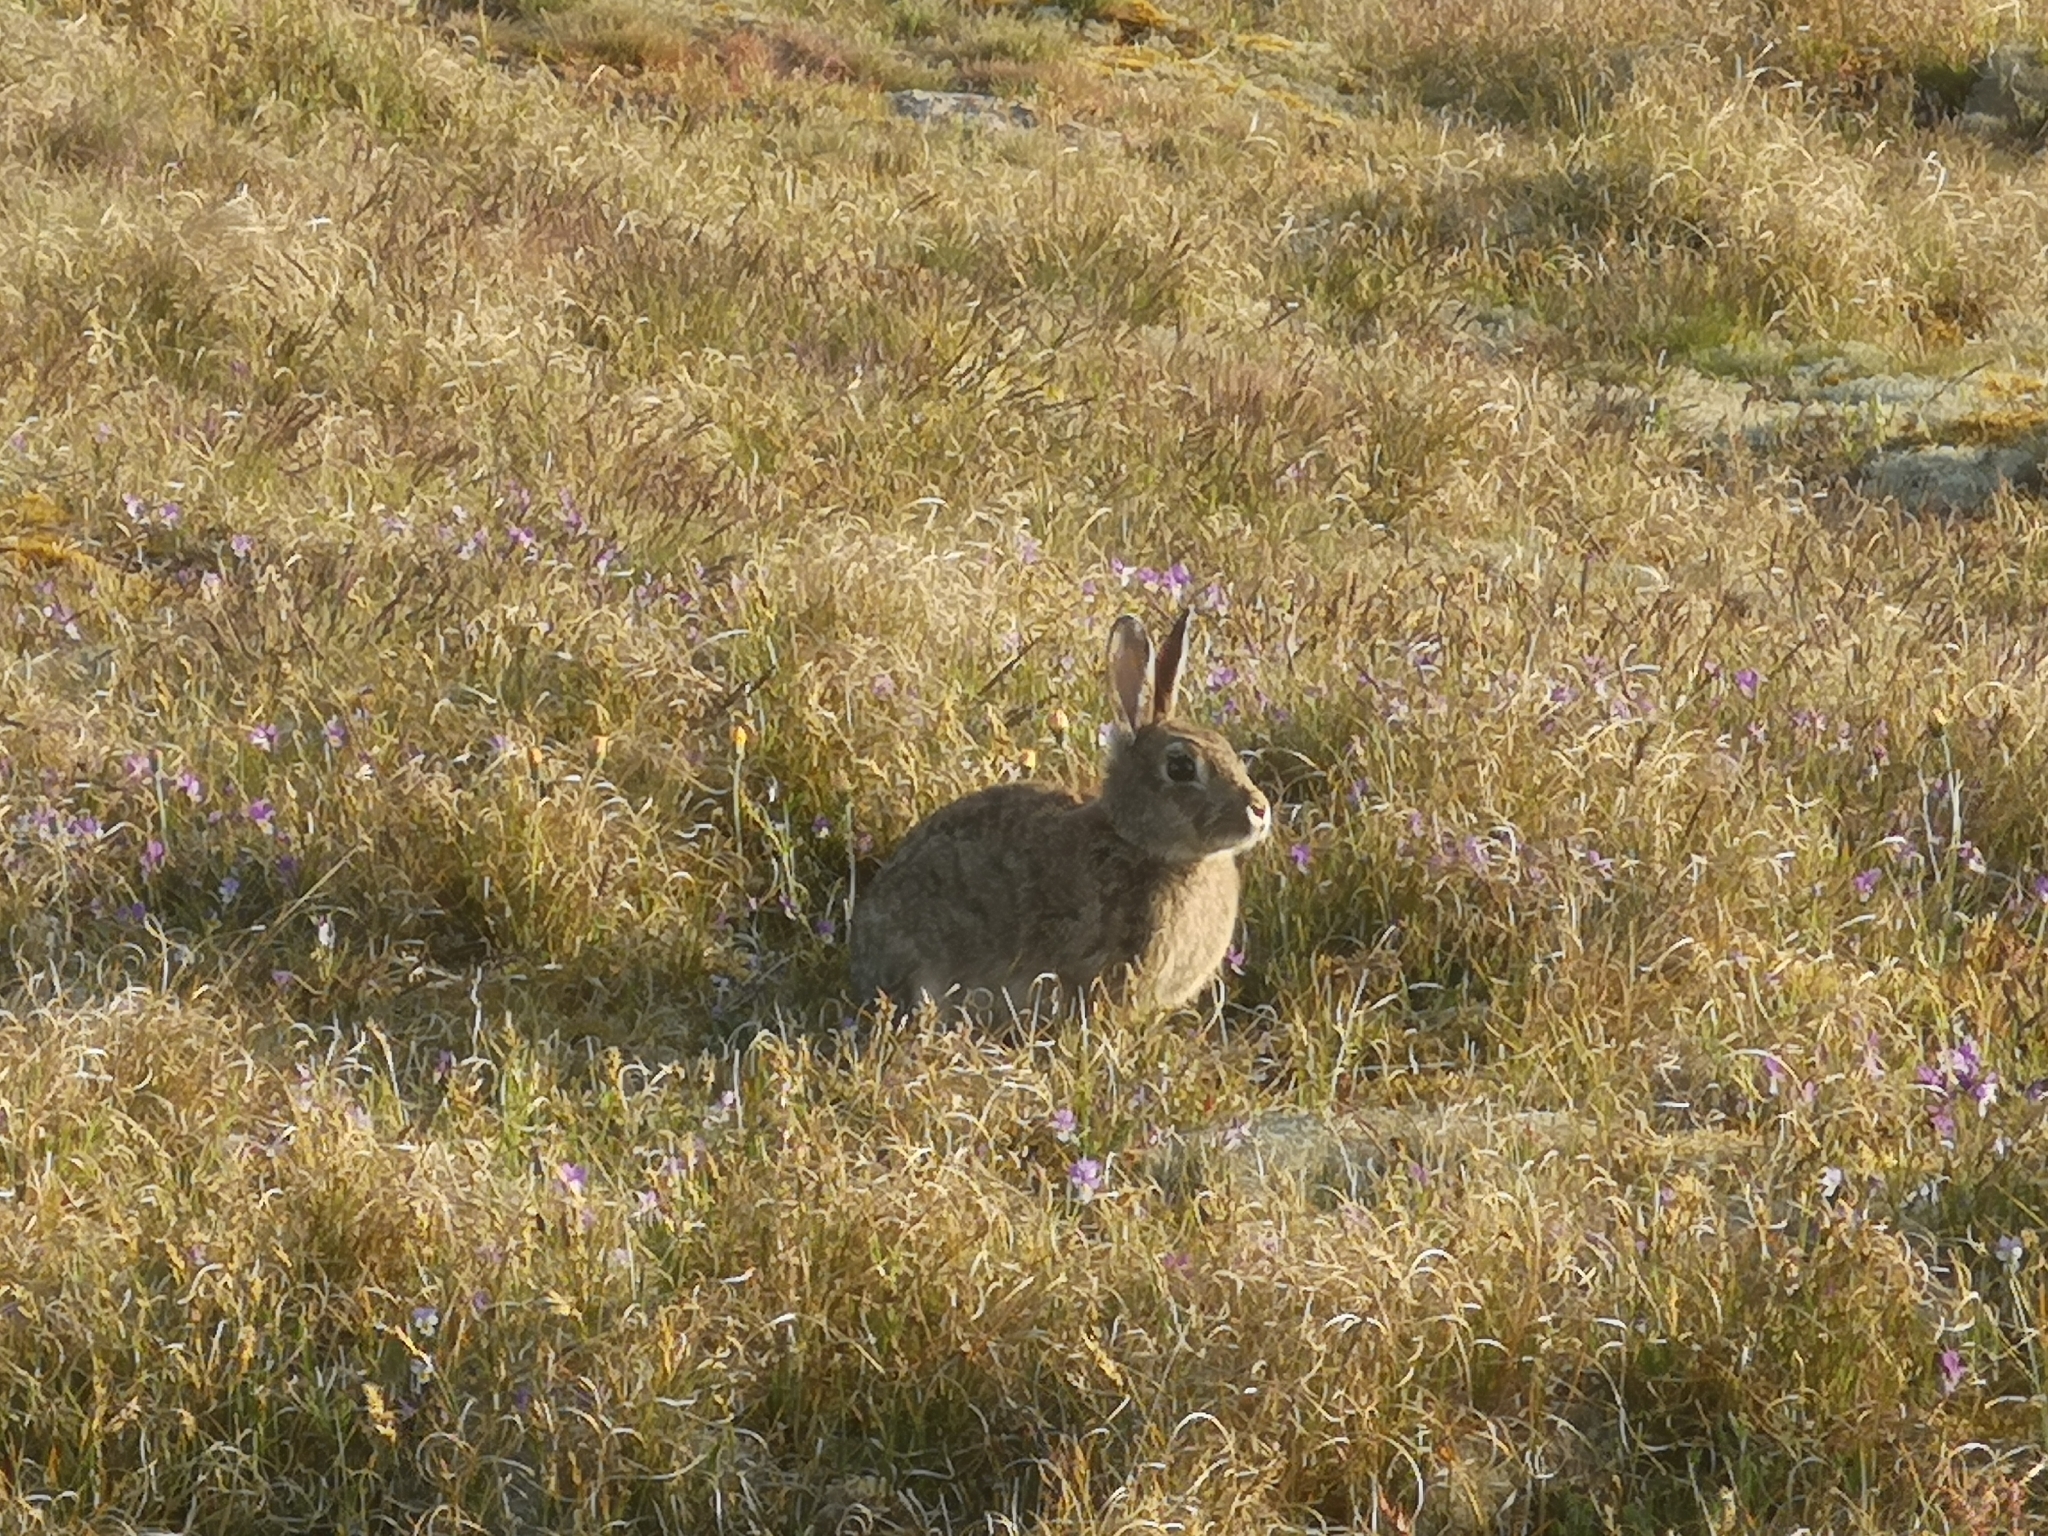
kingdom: Animalia
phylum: Chordata
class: Mammalia
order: Lagomorpha
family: Leporidae
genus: Oryctolagus
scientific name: Oryctolagus cuniculus
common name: European rabbit
